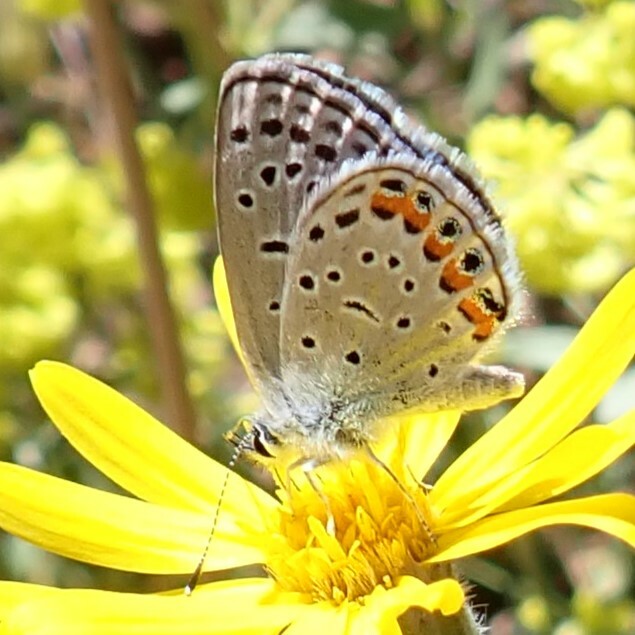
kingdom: Animalia
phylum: Arthropoda
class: Insecta
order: Lepidoptera
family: Lycaenidae
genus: Icaricia
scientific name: Icaricia lupini
